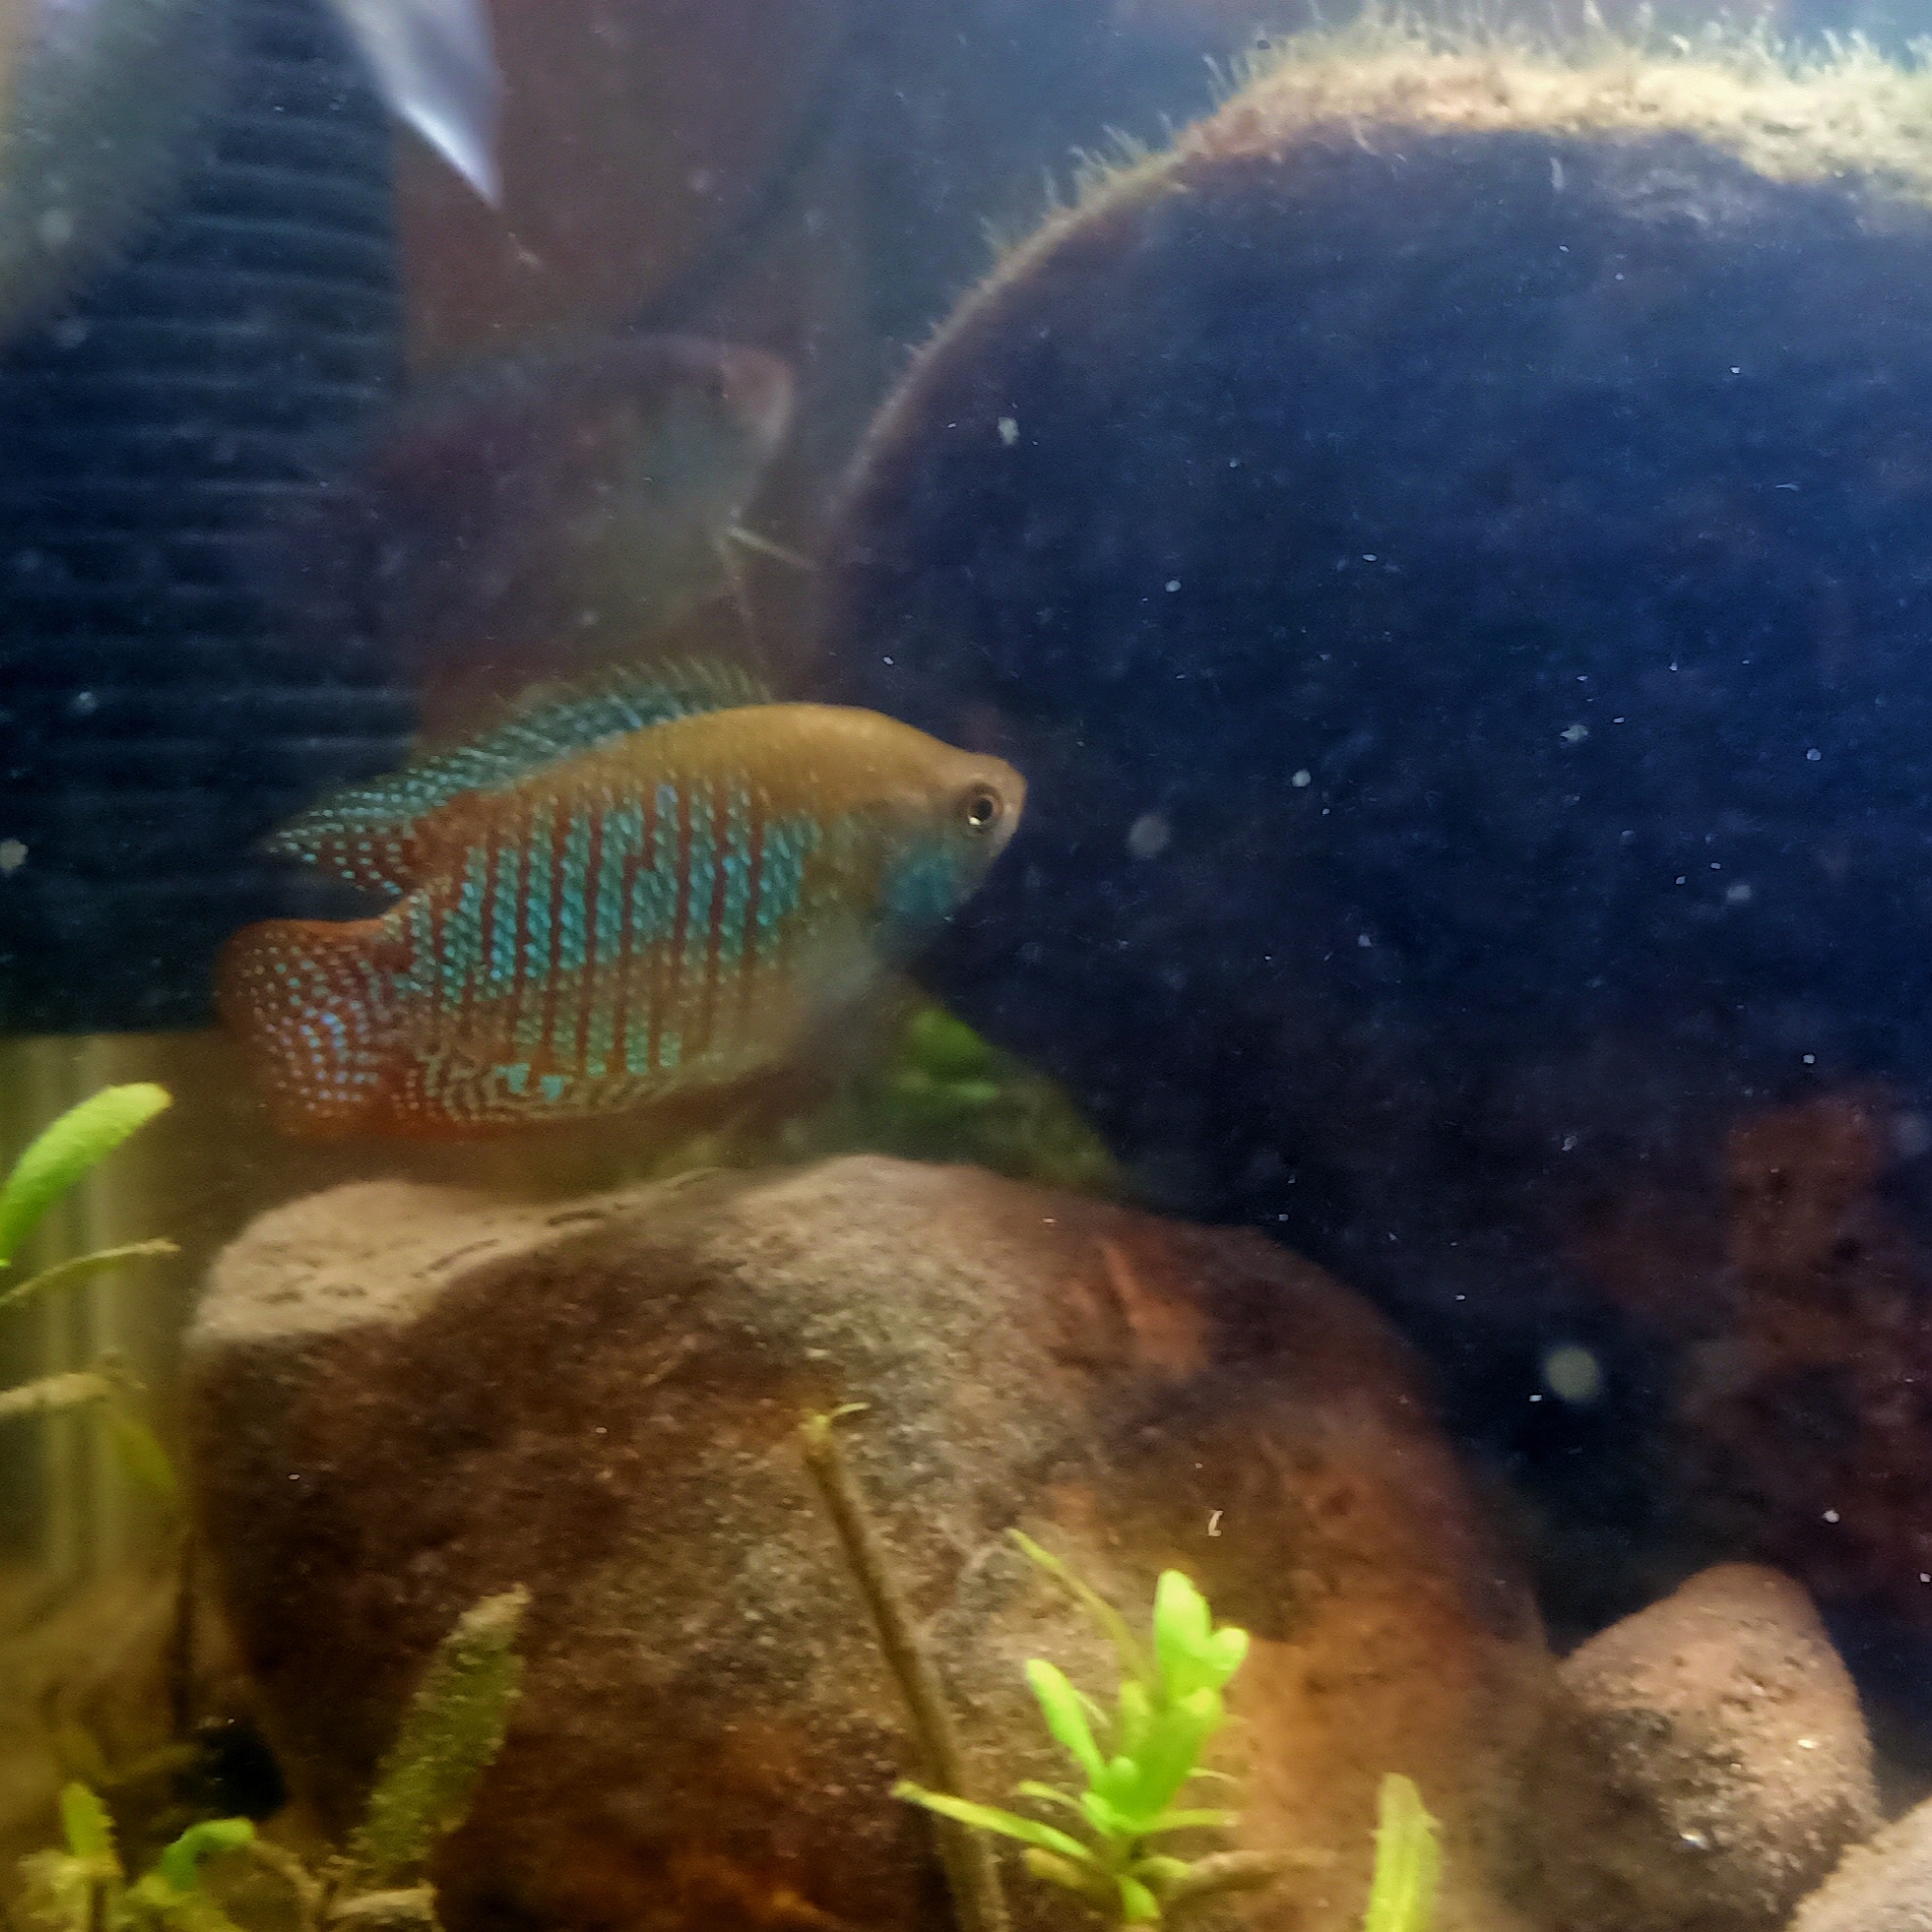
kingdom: Animalia
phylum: Chordata
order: Perciformes
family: Osphronemidae
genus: Trichogaster
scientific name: Trichogaster fasciata
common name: Banded gourami
